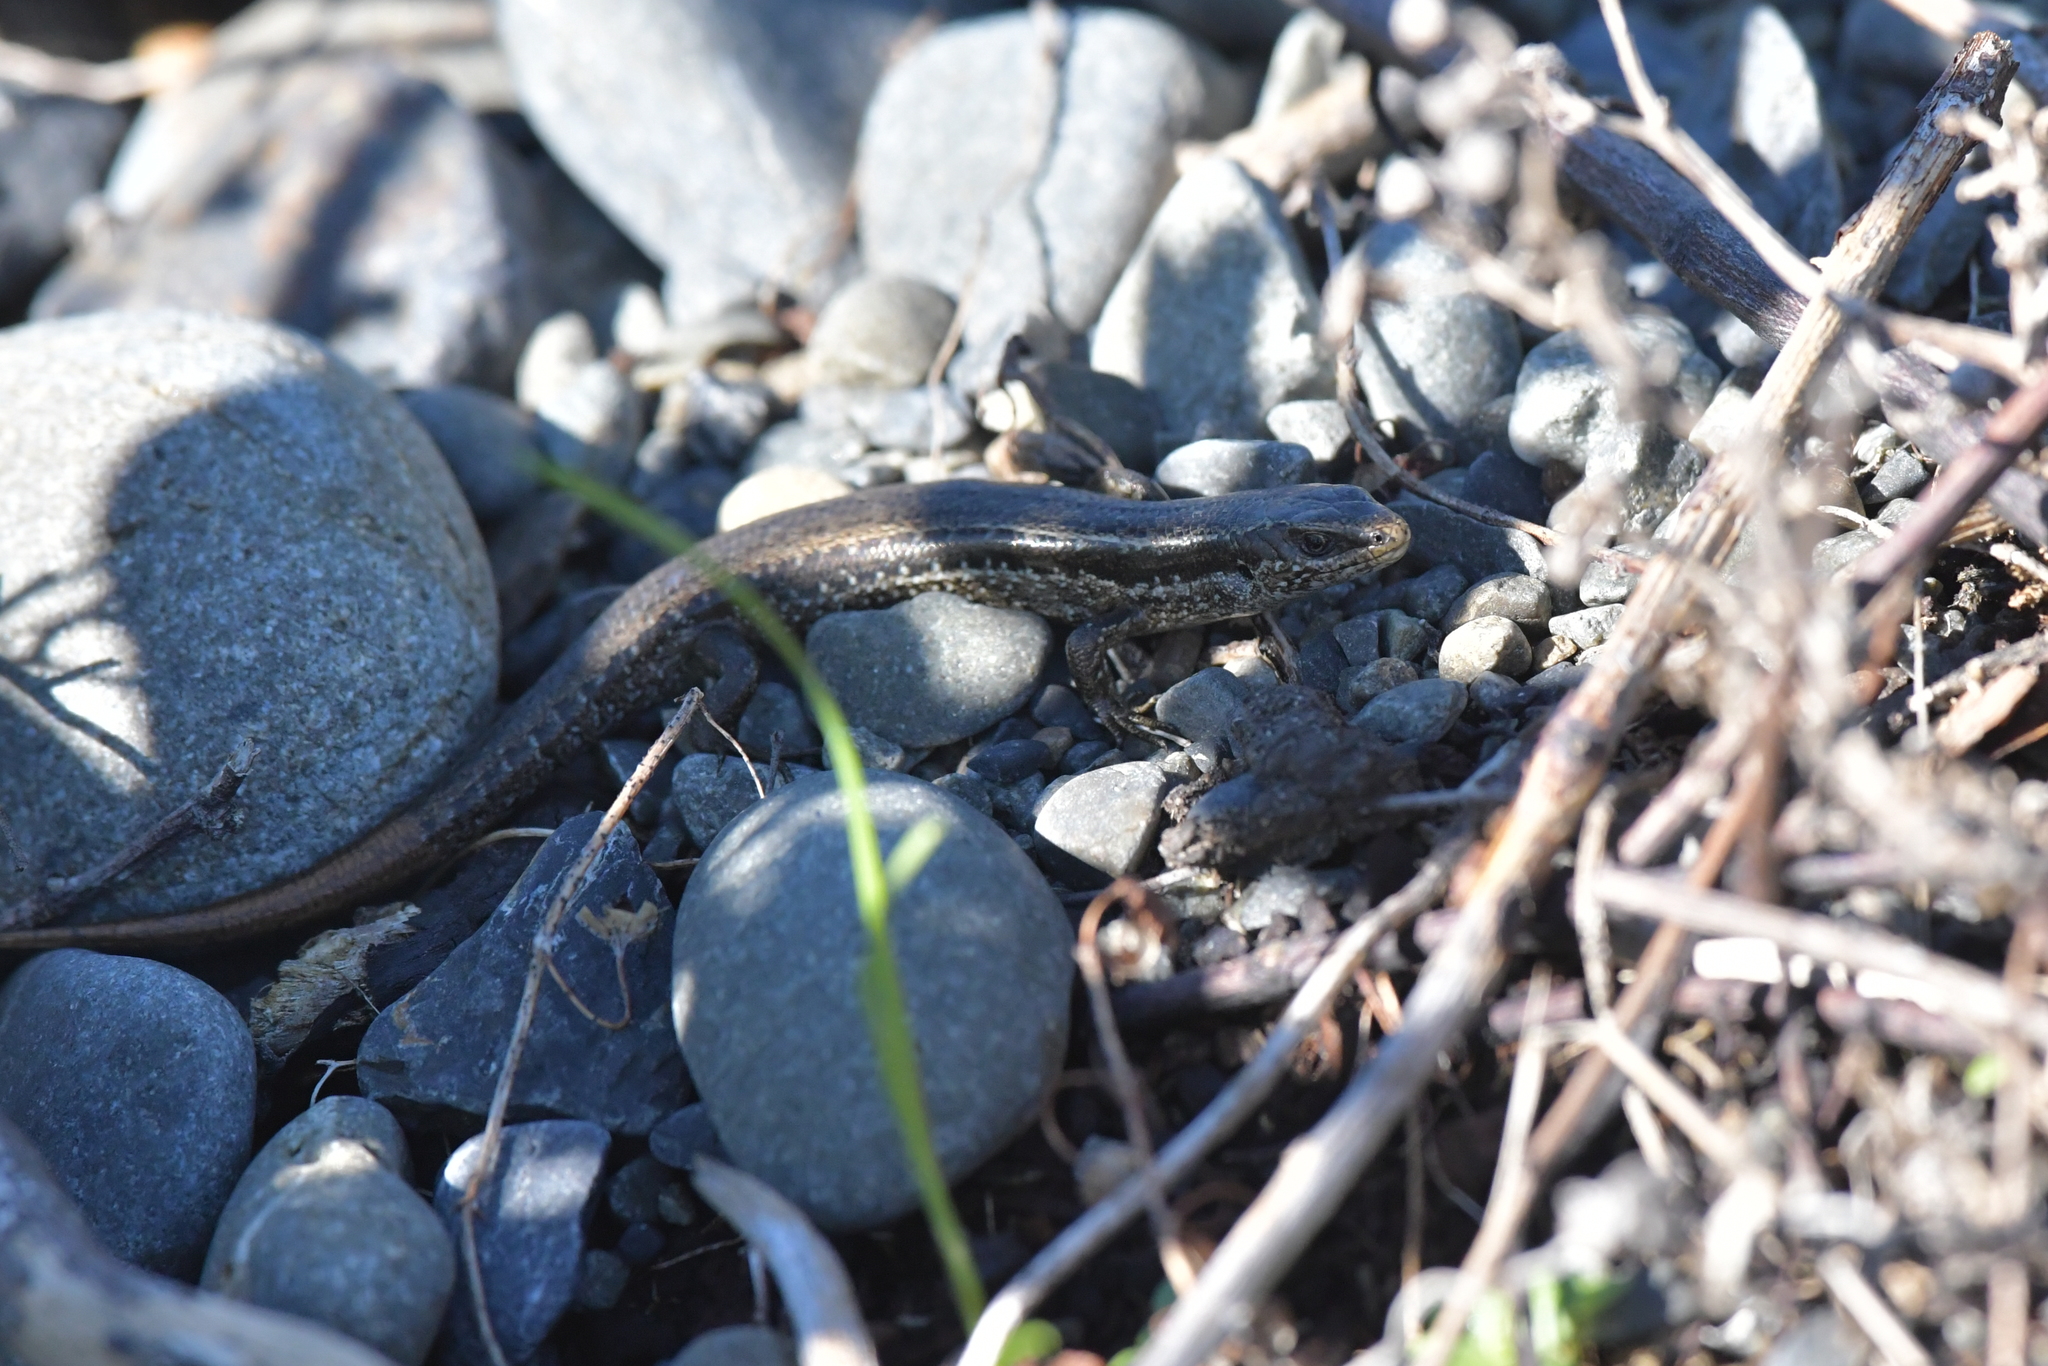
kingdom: Animalia
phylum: Chordata
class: Squamata
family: Scincidae
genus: Oligosoma
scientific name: Oligosoma polychroma
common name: Common new zealand skink
